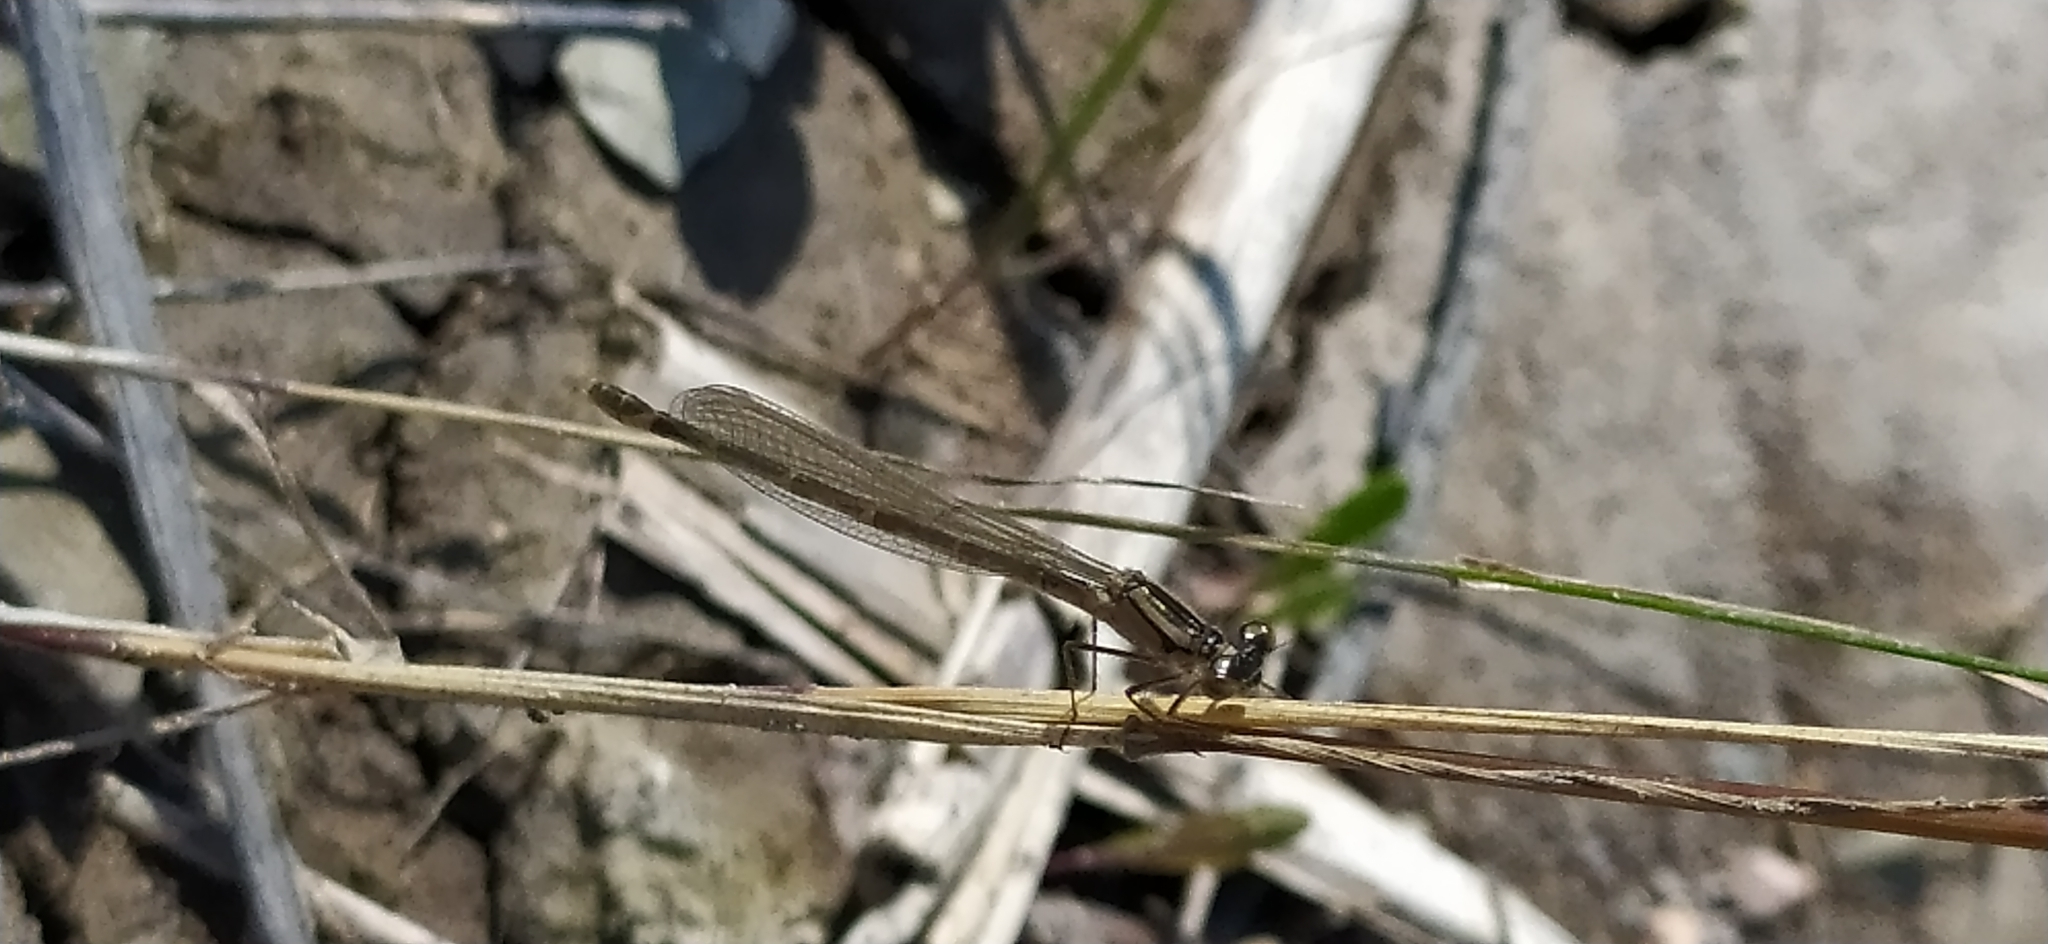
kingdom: Animalia
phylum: Arthropoda
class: Insecta
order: Odonata
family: Coenagrionidae
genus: Enallagma
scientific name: Enallagma cyathigerum
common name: Common blue damselfly
